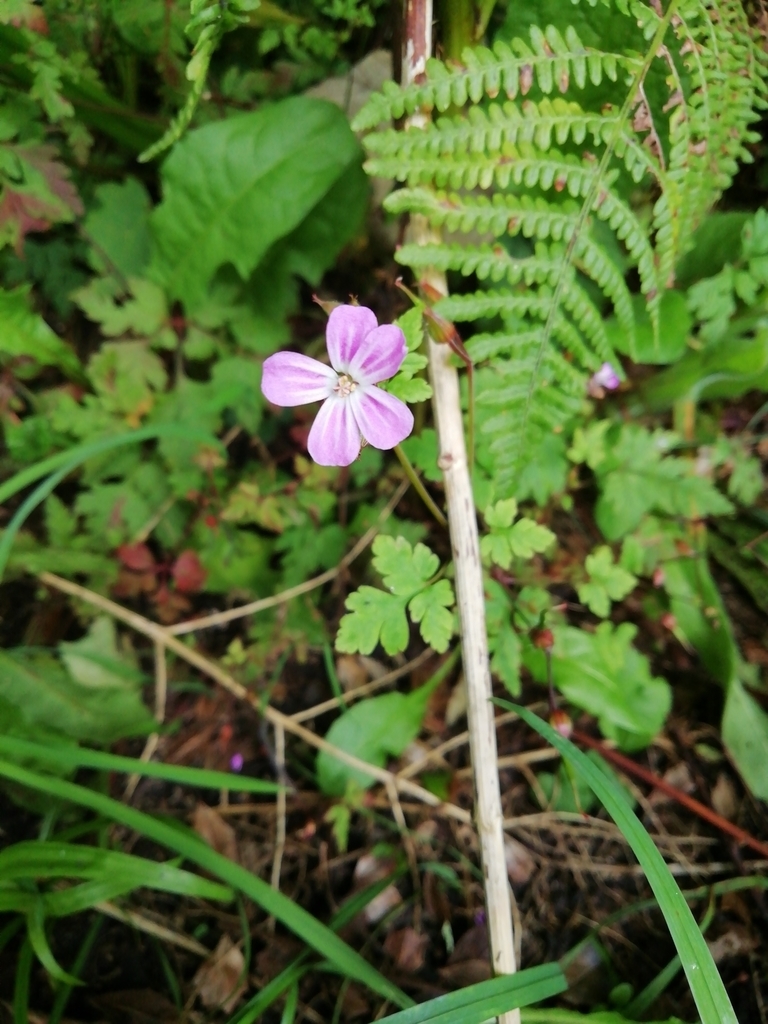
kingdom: Plantae
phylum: Tracheophyta
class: Magnoliopsida
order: Geraniales
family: Geraniaceae
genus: Geranium
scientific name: Geranium robertianum
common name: Herb-robert
